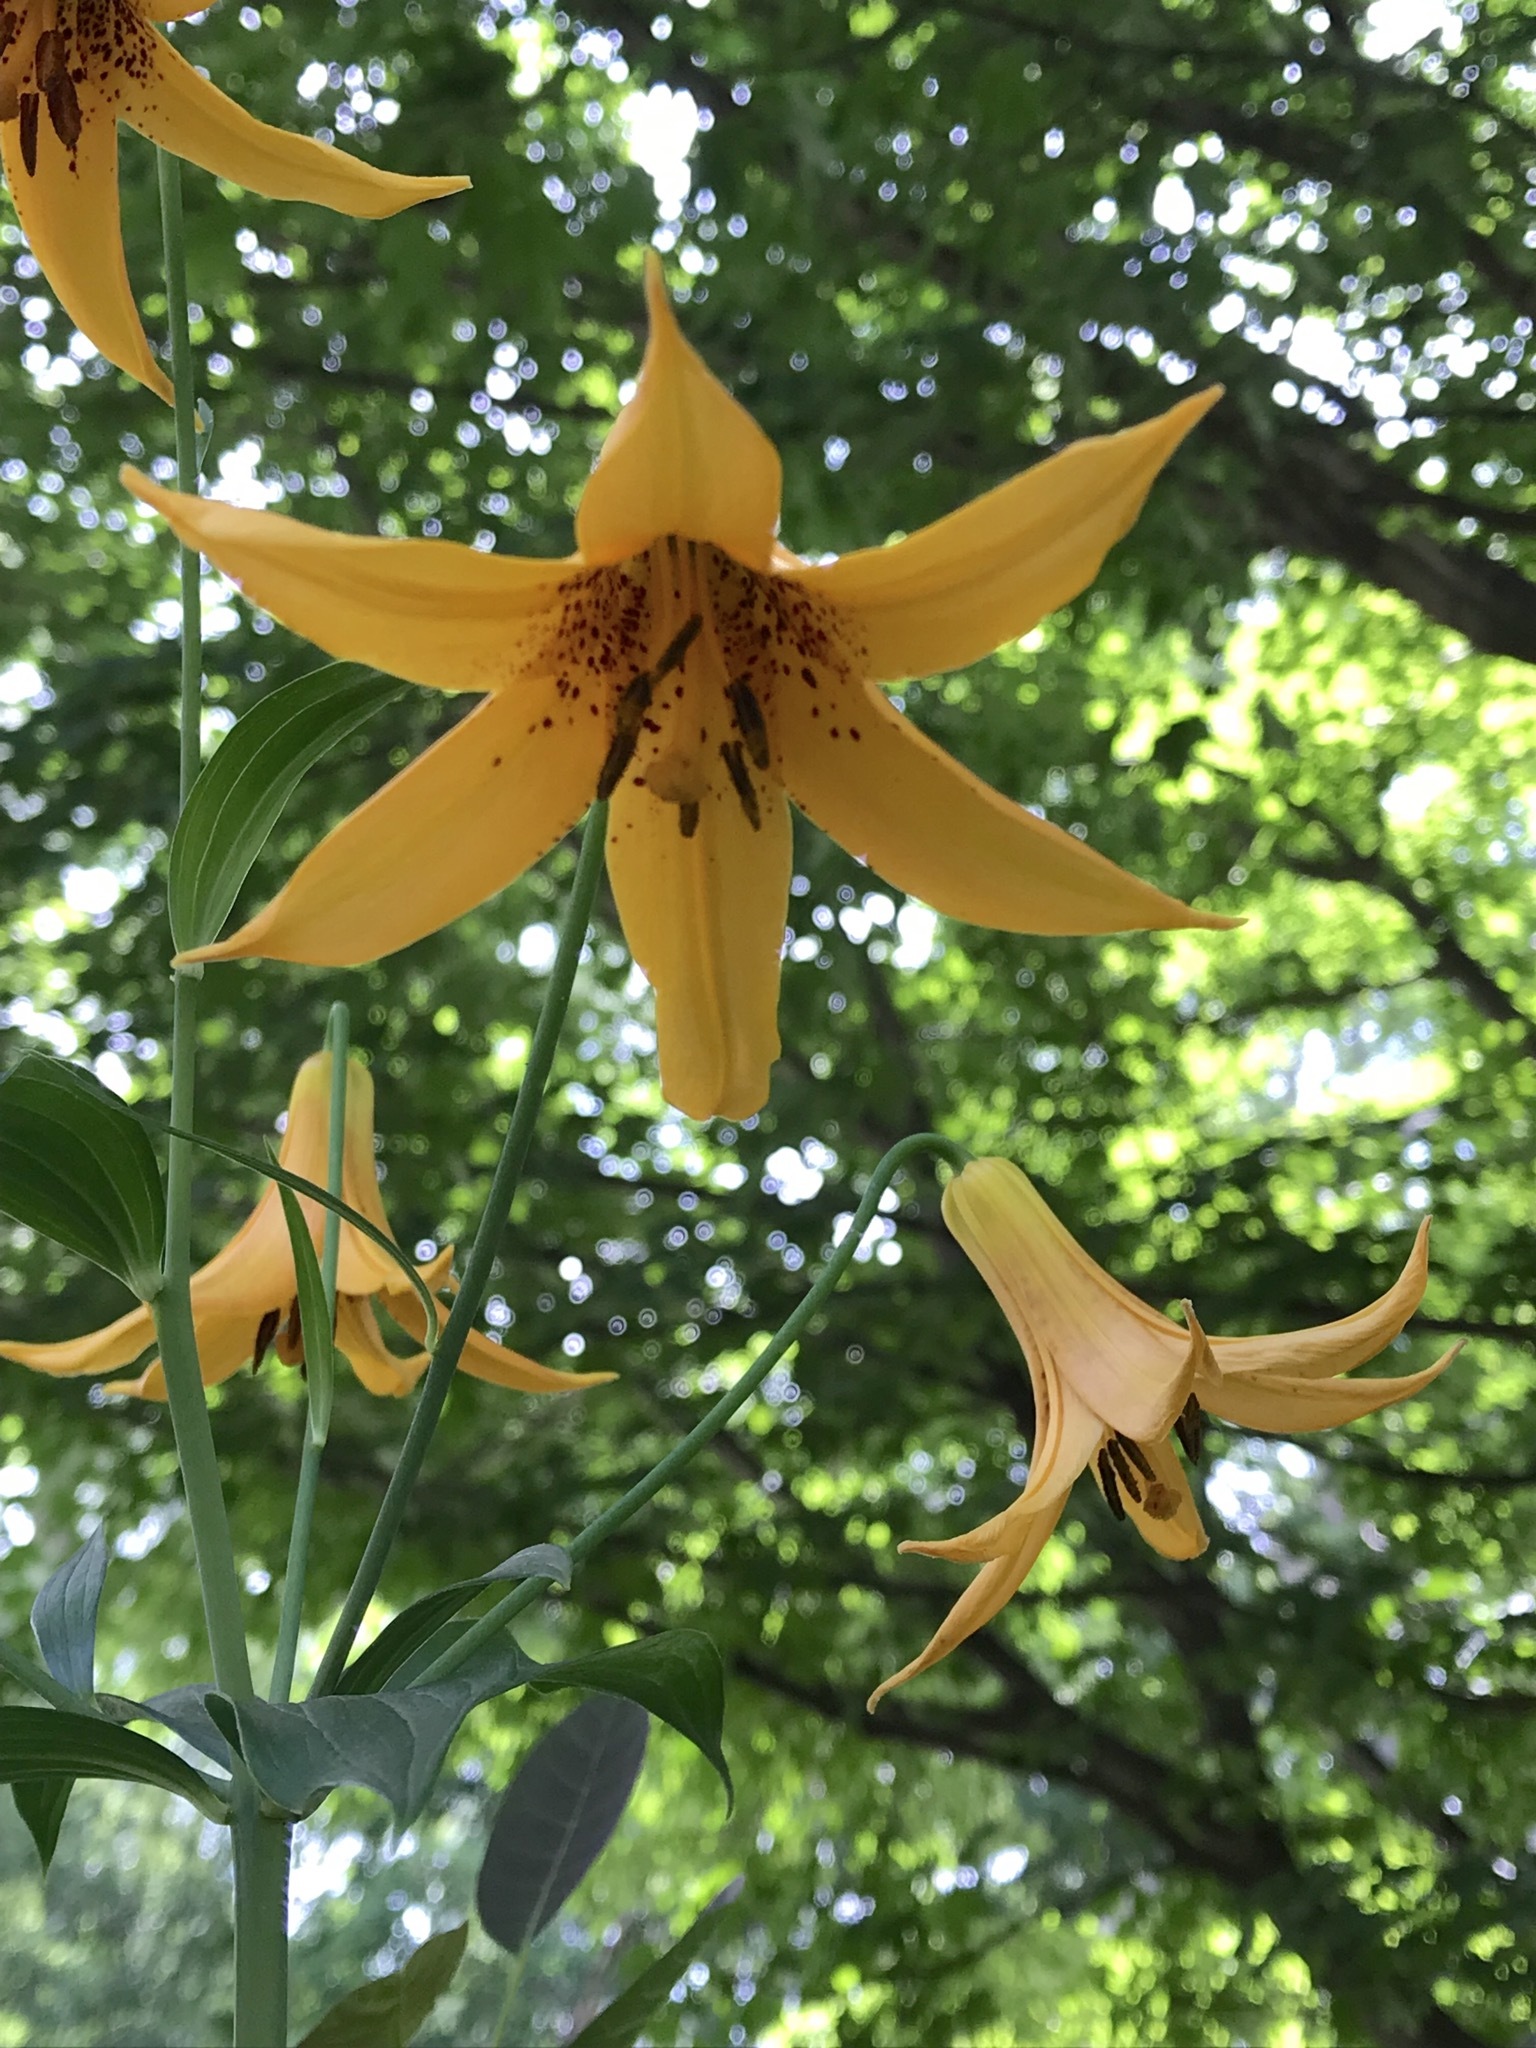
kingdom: Plantae
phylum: Tracheophyta
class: Liliopsida
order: Liliales
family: Liliaceae
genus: Lilium
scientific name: Lilium canadense
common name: Canada lily
